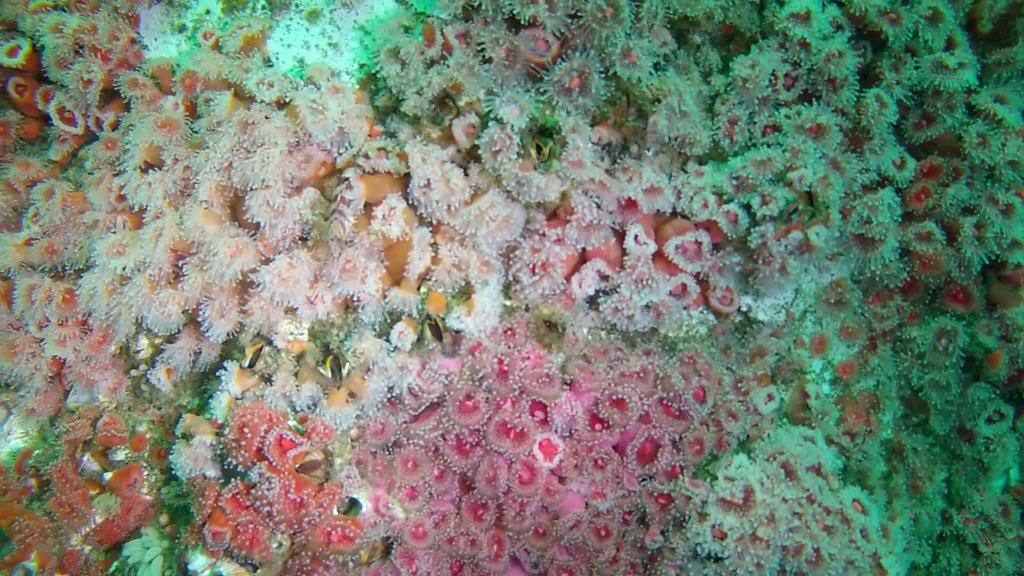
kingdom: Animalia
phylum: Cnidaria
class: Anthozoa
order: Corallimorpharia
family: Corallimorphidae
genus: Corynactis
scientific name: Corynactis californica
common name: Strawberry corallimorpharian
